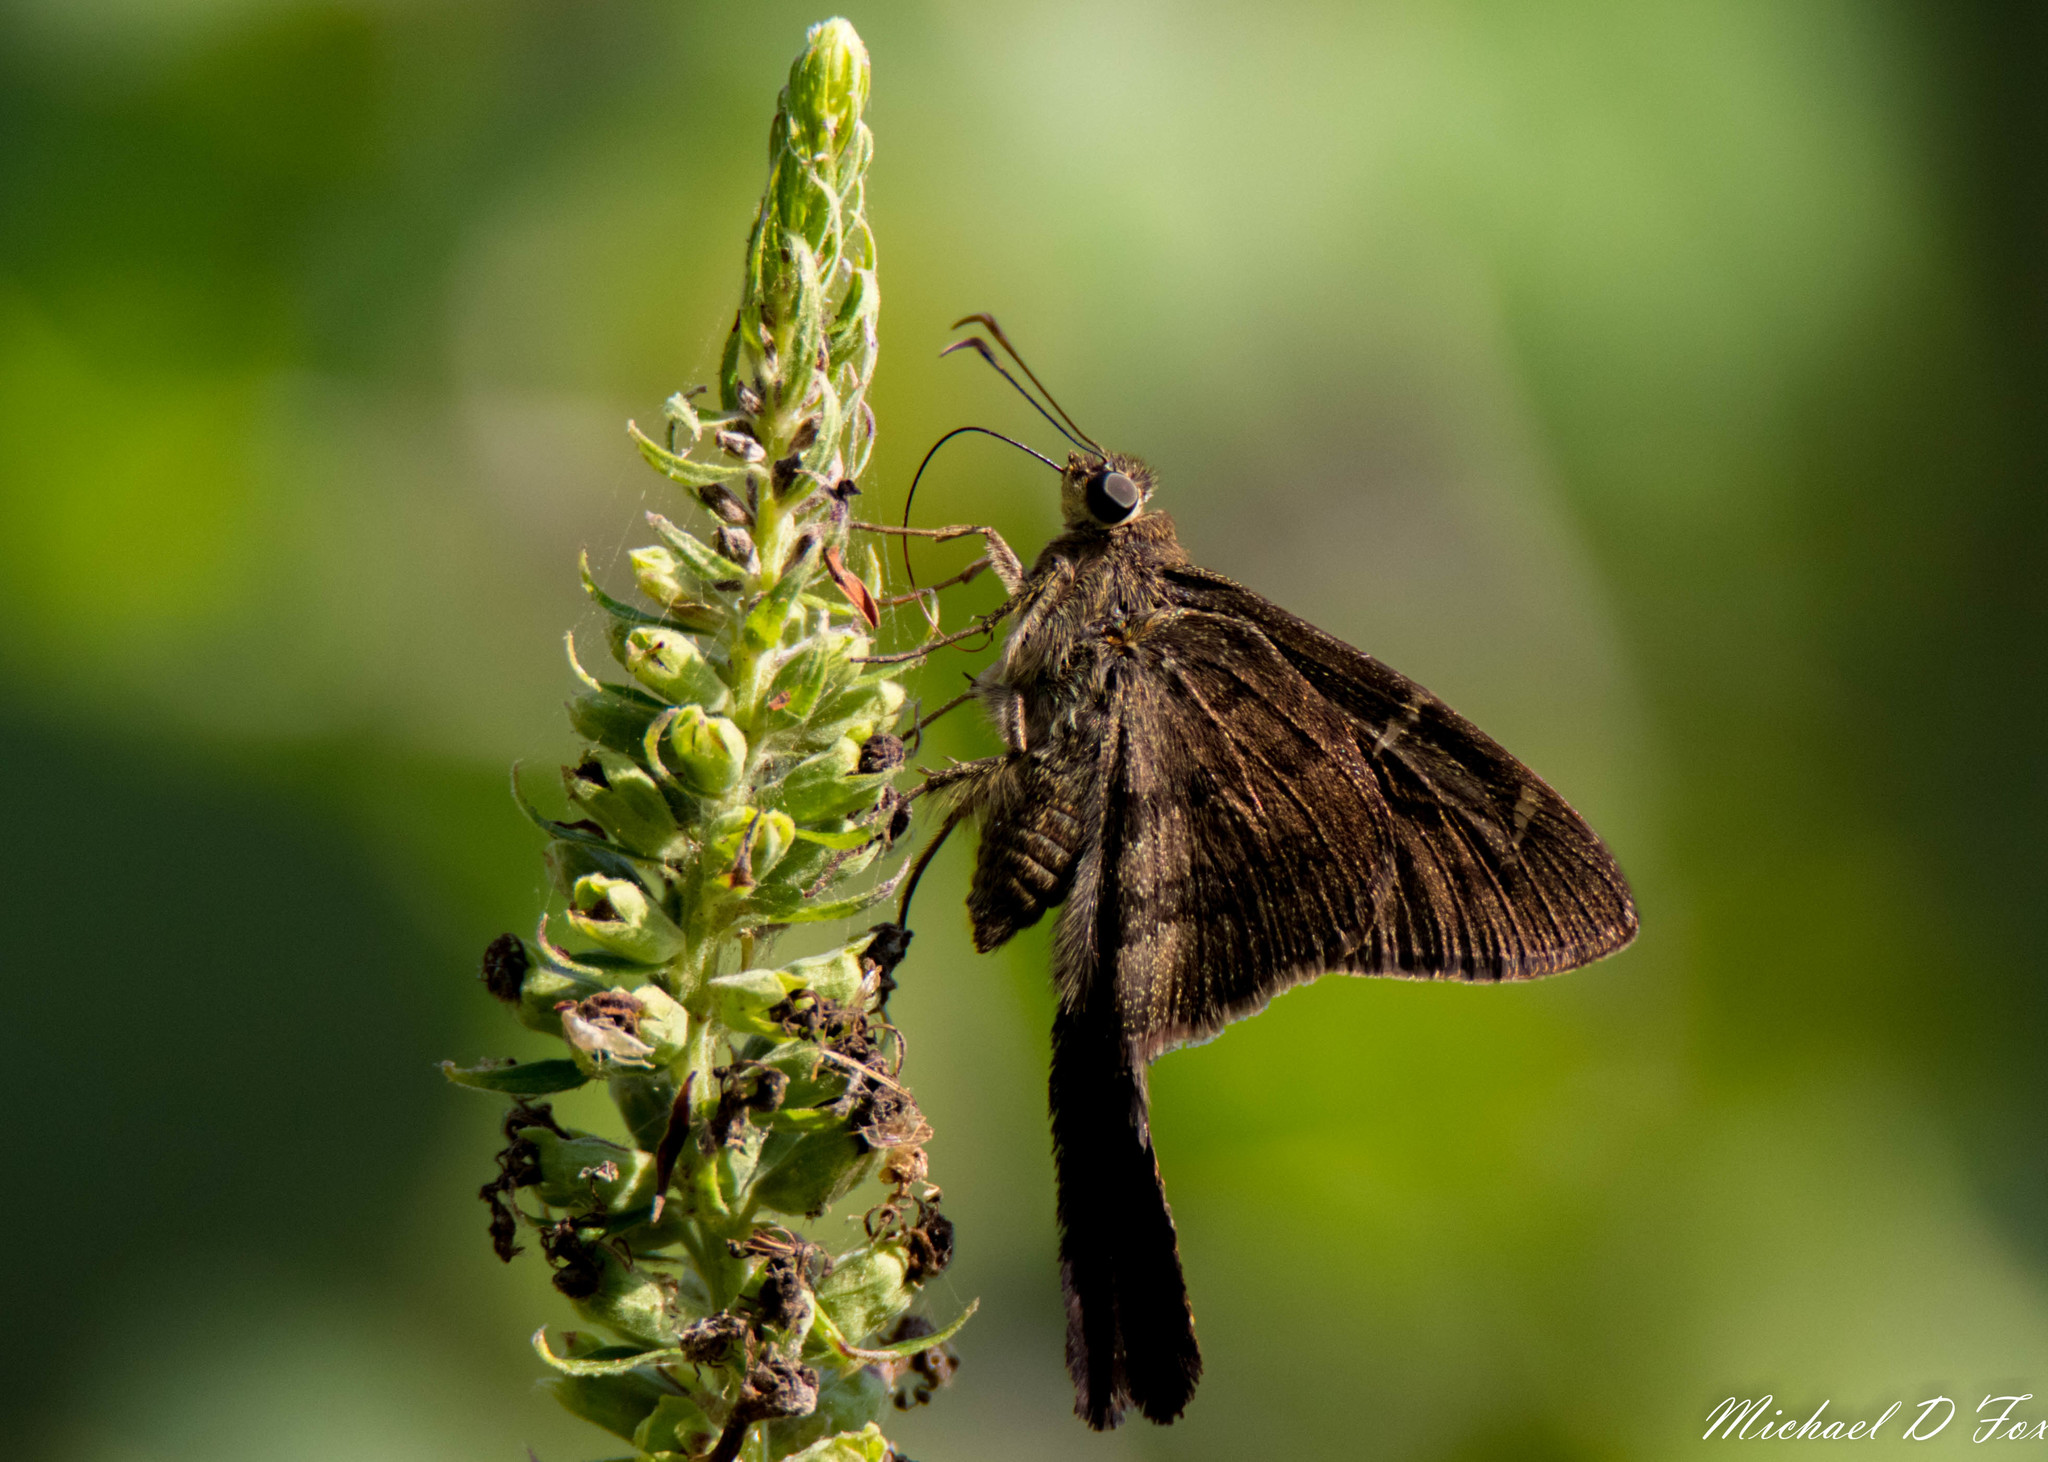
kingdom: Animalia
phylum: Arthropoda
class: Insecta
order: Lepidoptera
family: Hesperiidae
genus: Urbanus
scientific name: Urbanus procne
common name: Brown longtail
